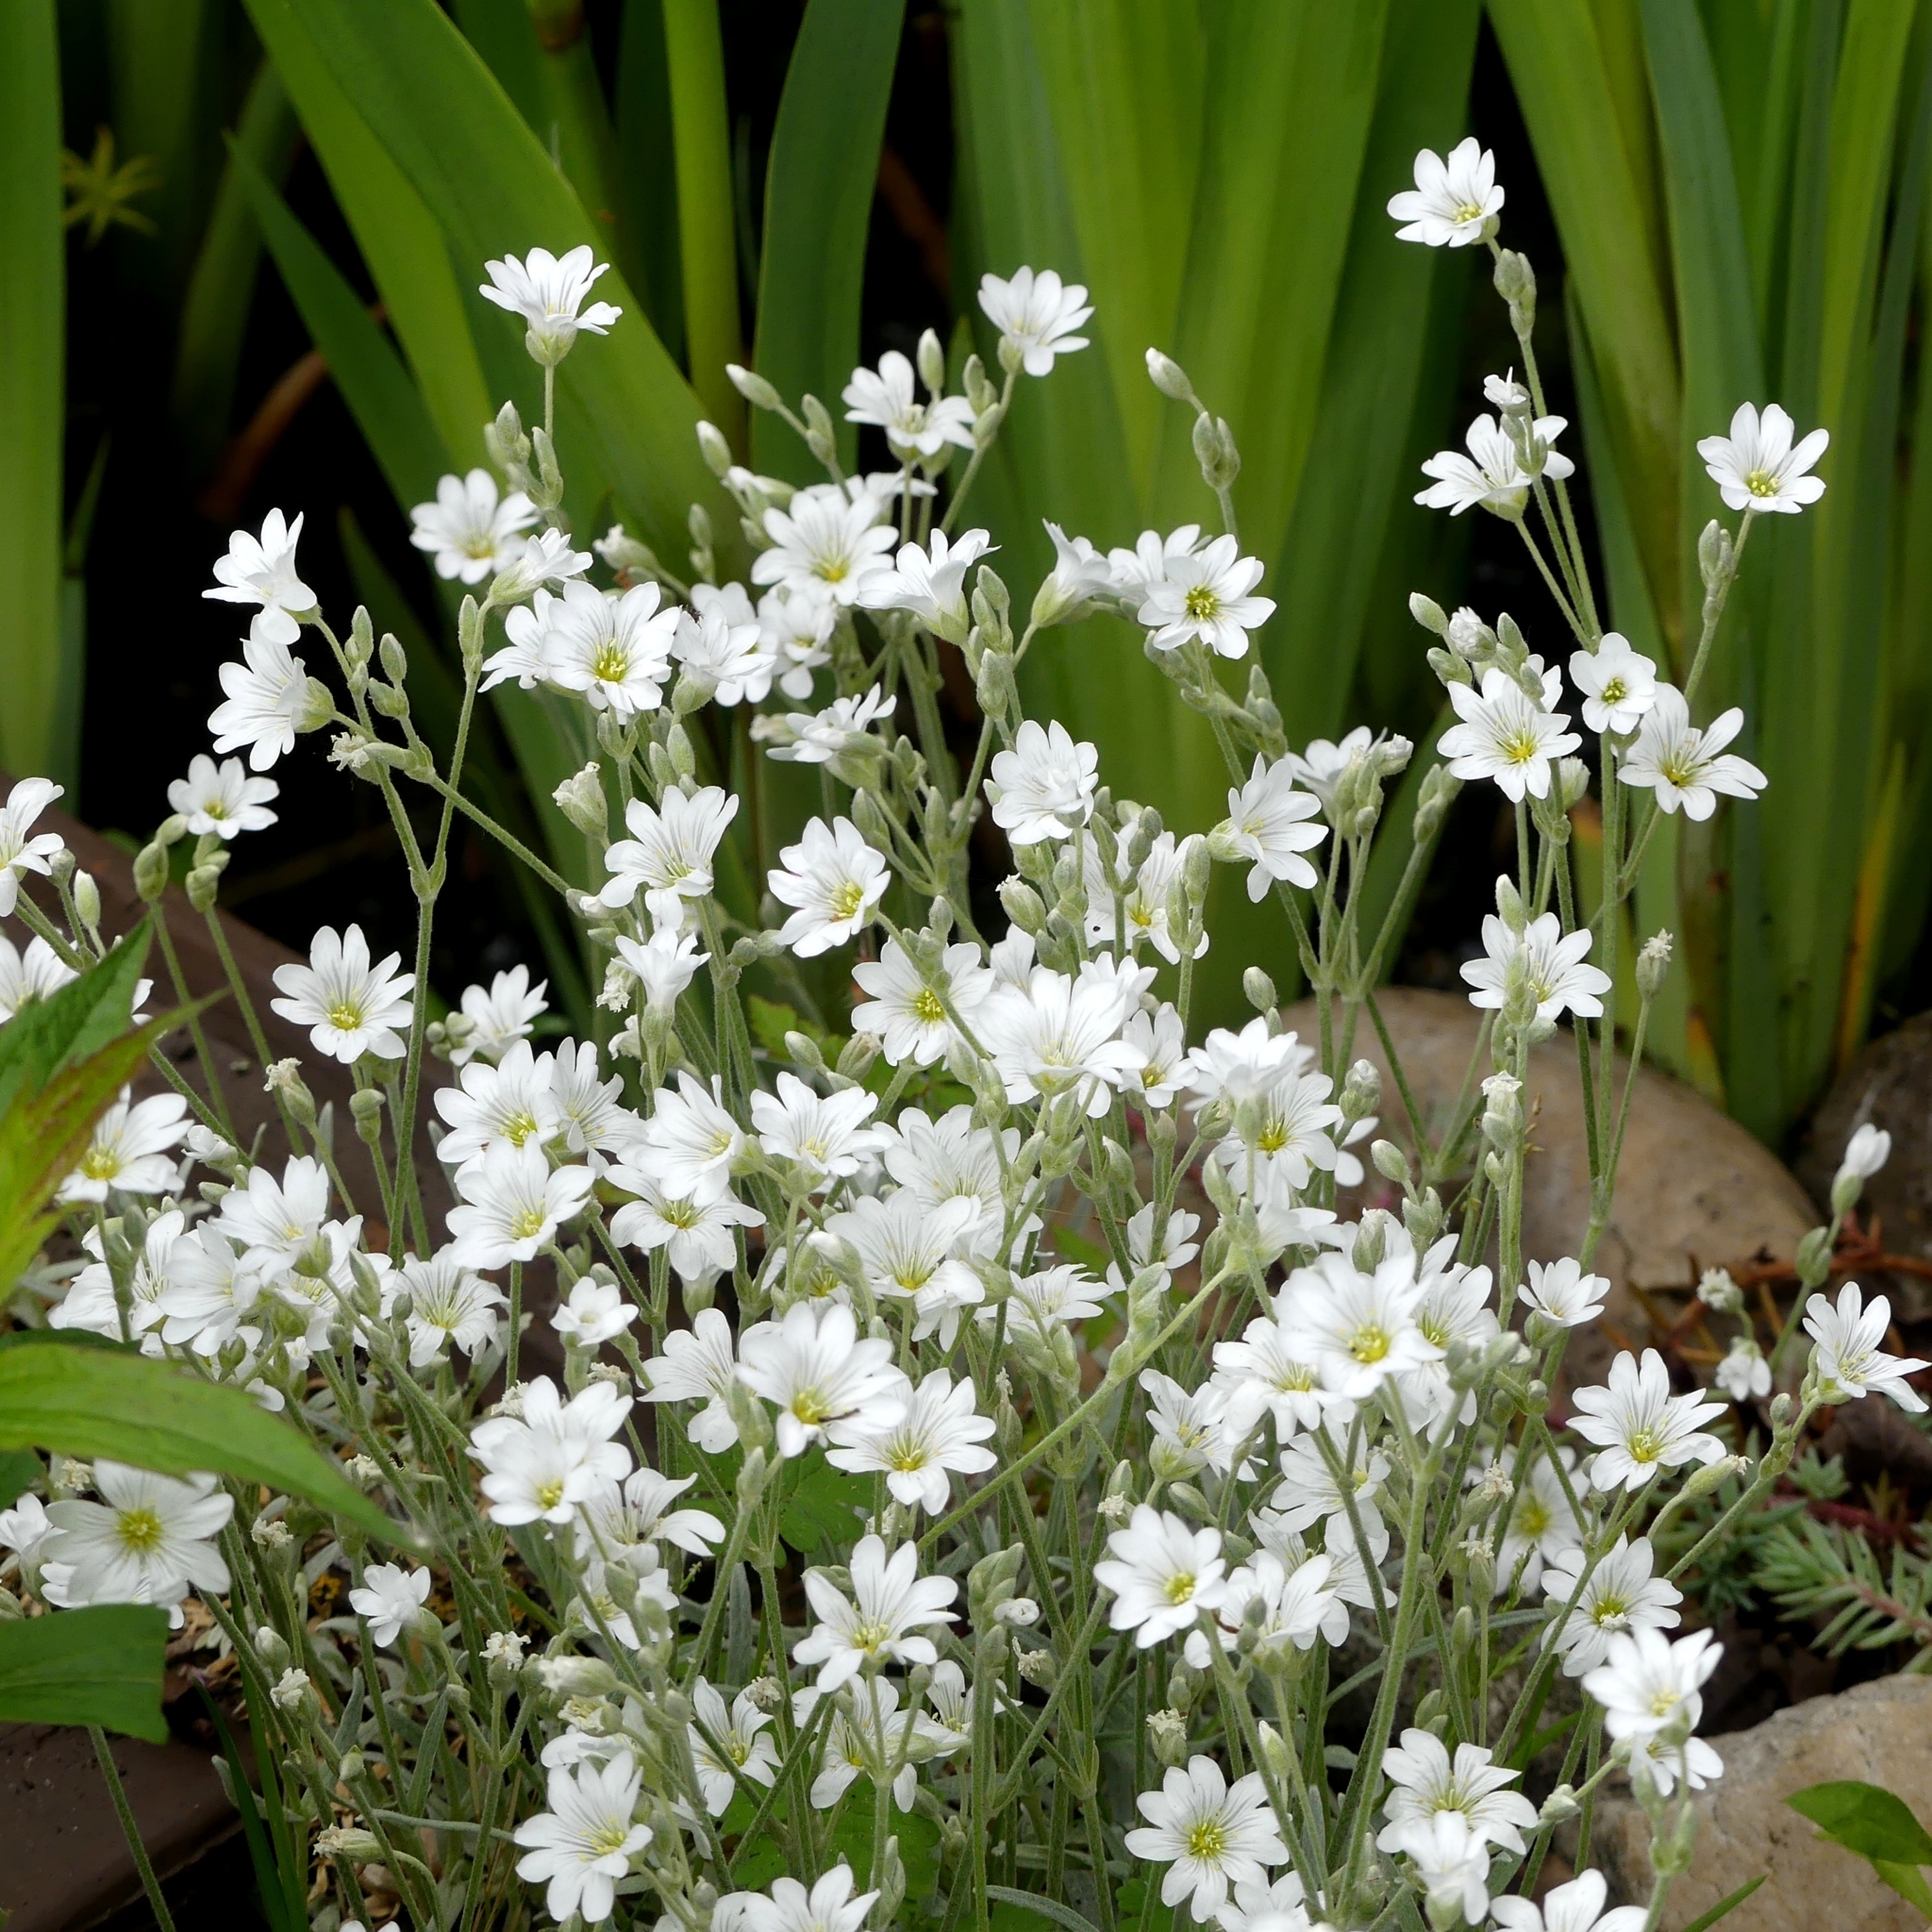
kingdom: Plantae
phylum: Tracheophyta
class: Magnoliopsida
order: Caryophyllales
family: Caryophyllaceae
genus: Cerastium
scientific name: Cerastium tomentosum
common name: Snow-in-summer
